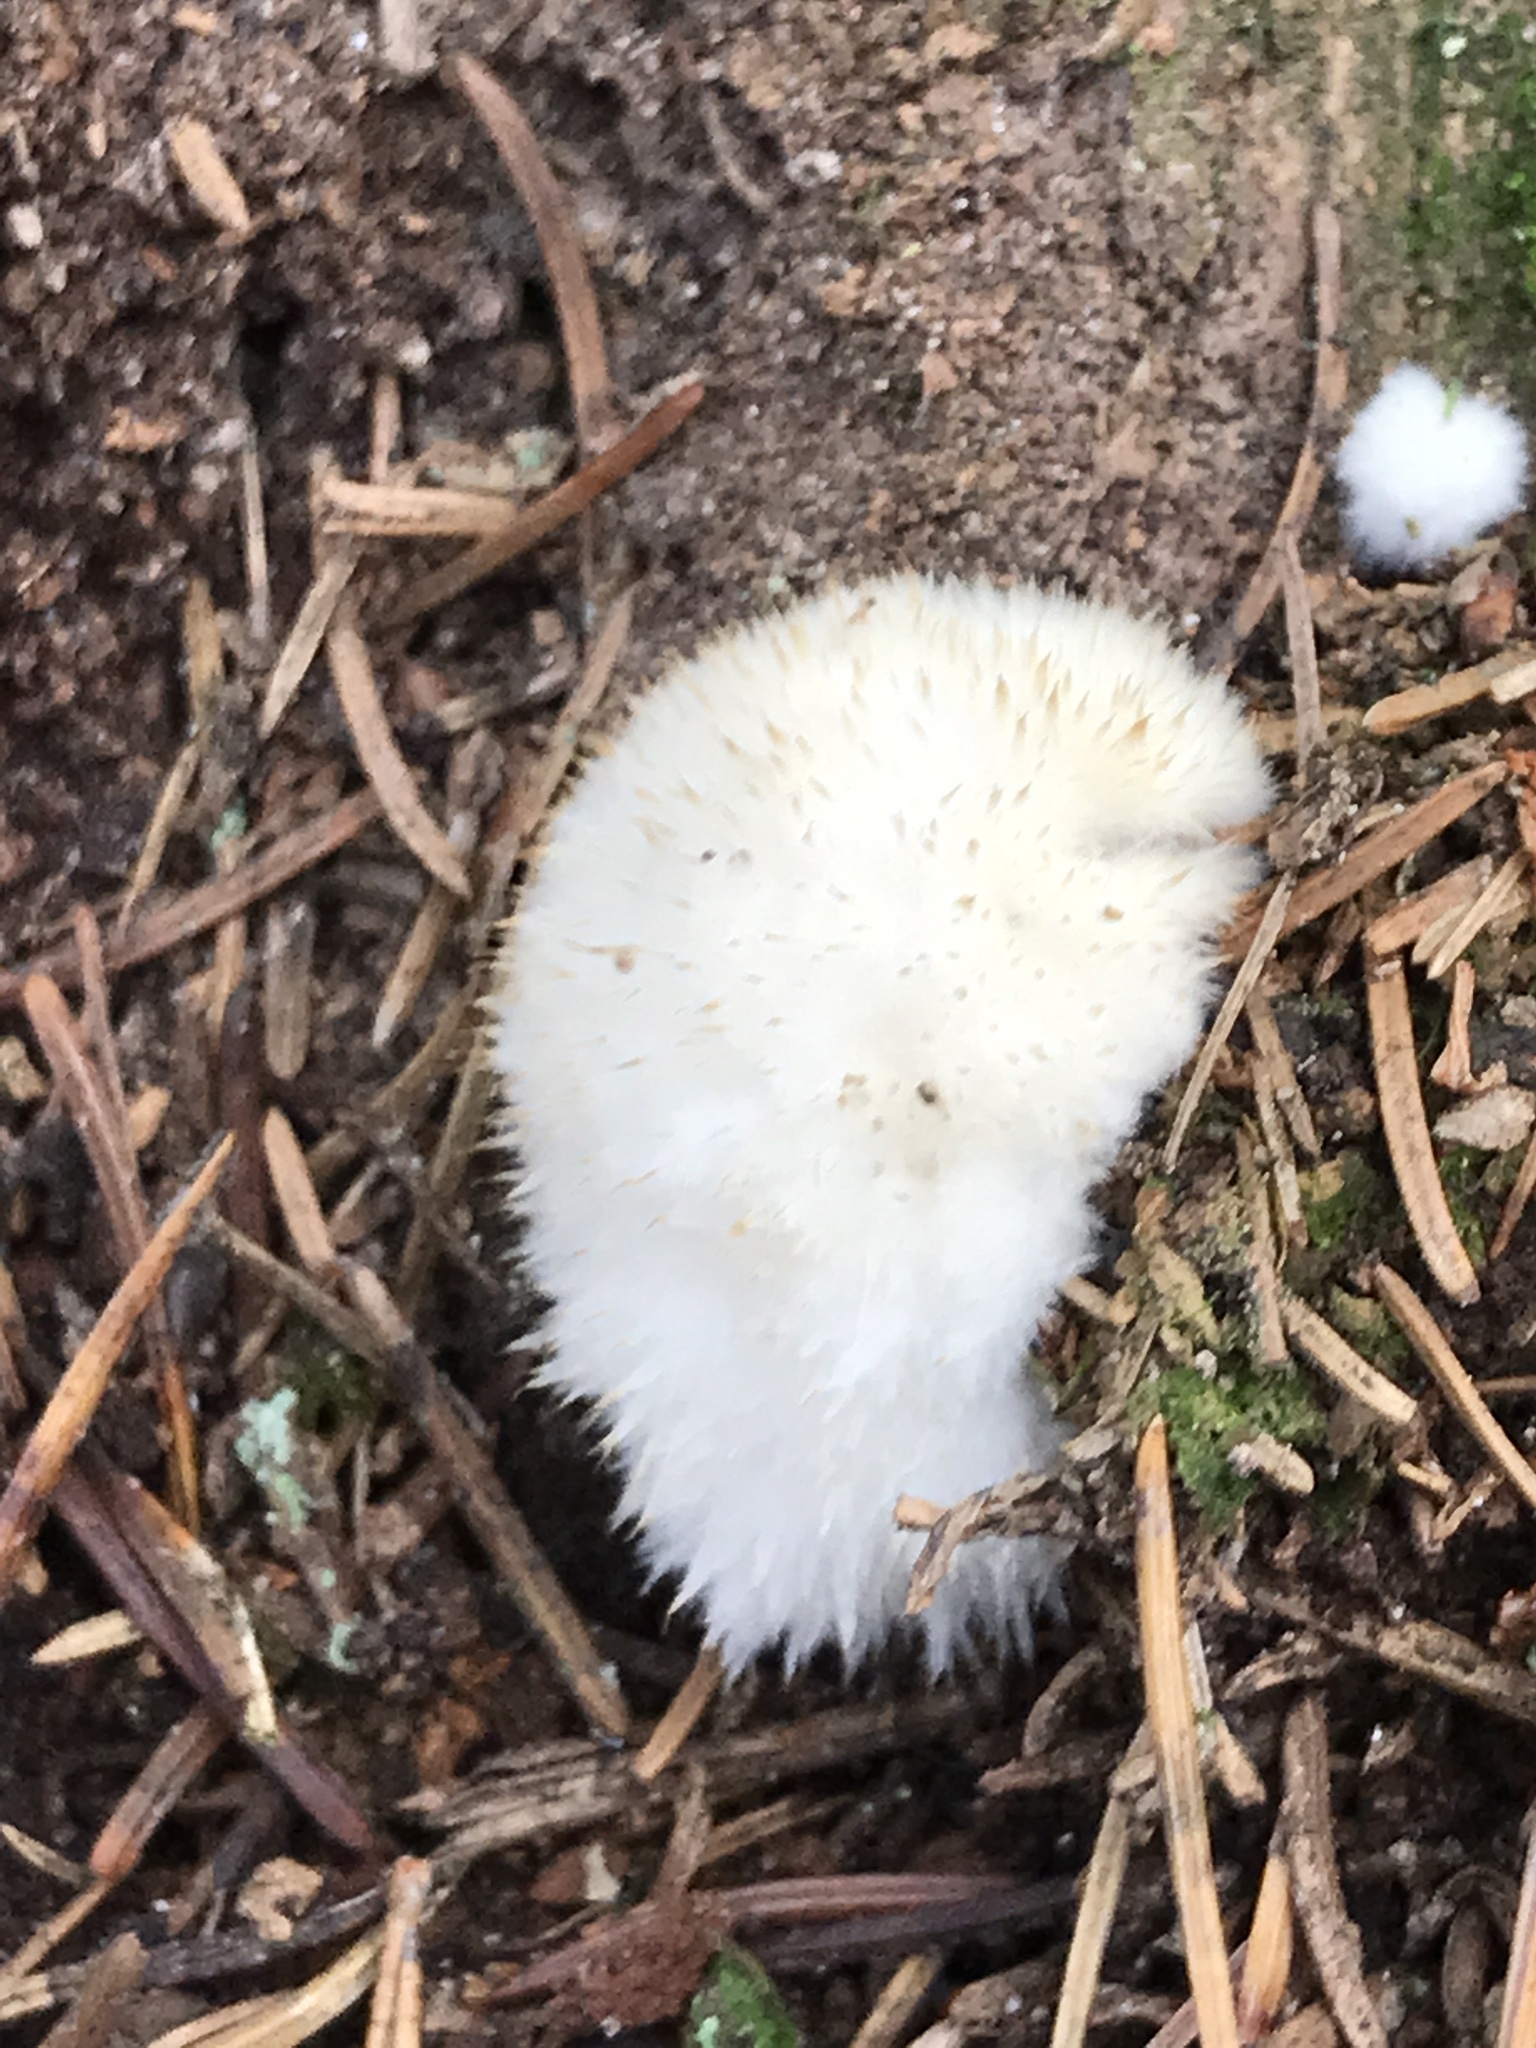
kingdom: Fungi
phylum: Basidiomycota
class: Agaricomycetes
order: Polyporales
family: Dacryobolaceae
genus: Postia
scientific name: Postia ptychogaster
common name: Powderpuff bracket
